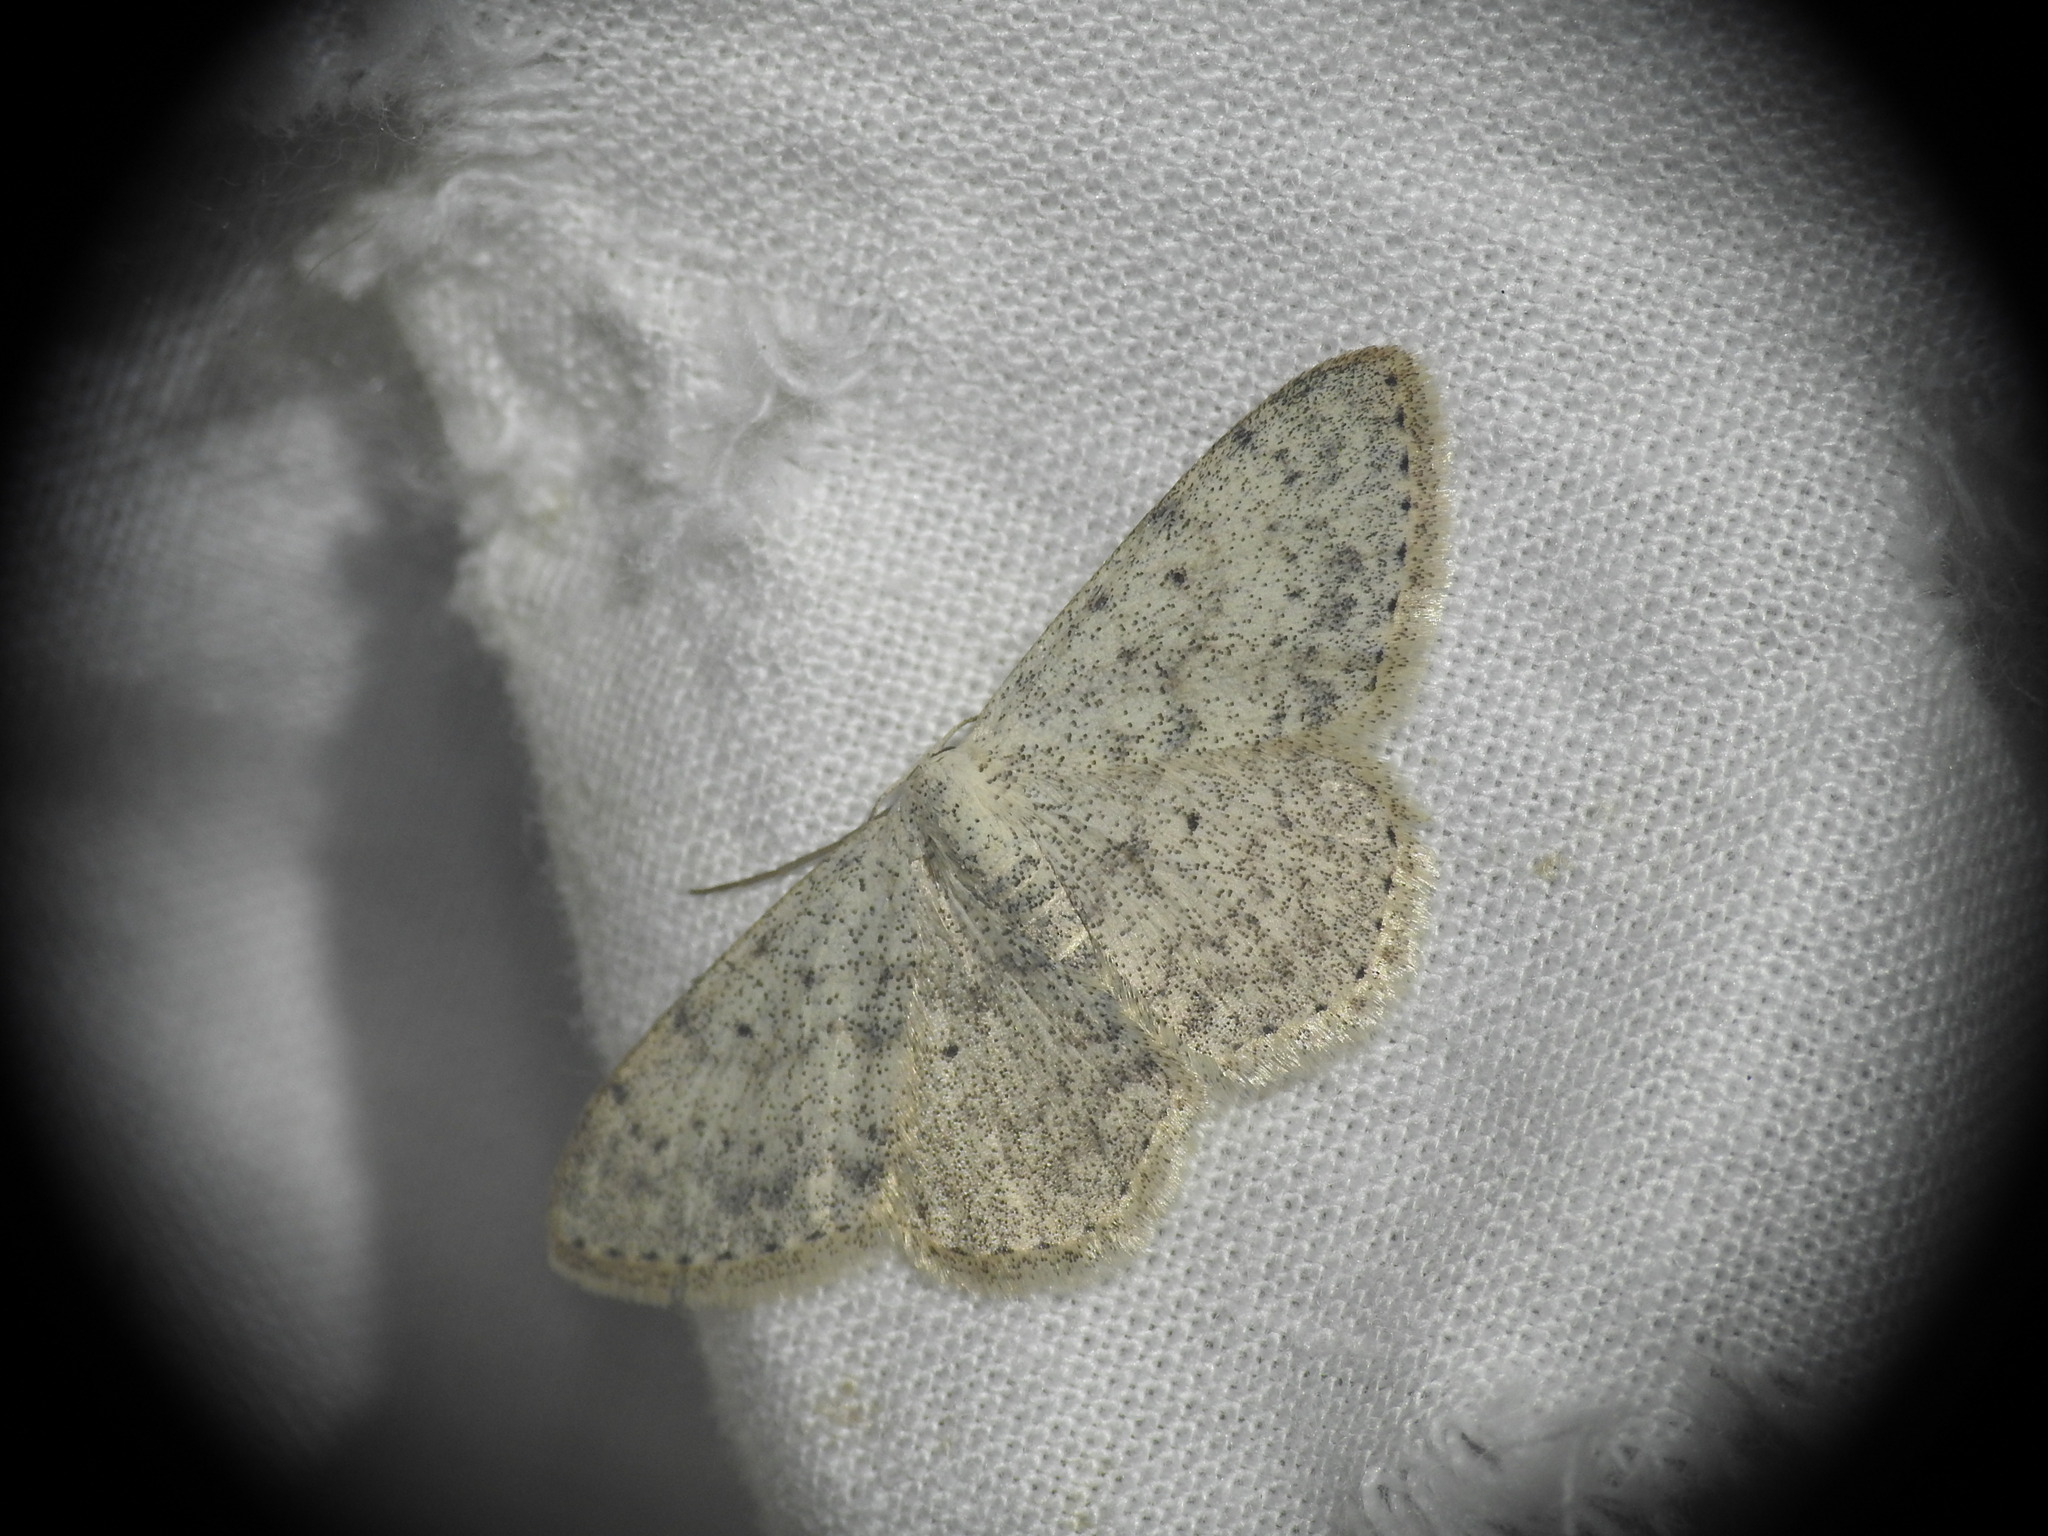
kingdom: Animalia
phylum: Arthropoda
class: Insecta
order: Lepidoptera
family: Geometridae
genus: Scopula
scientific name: Scopula marginepunctata
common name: Mullein wave
